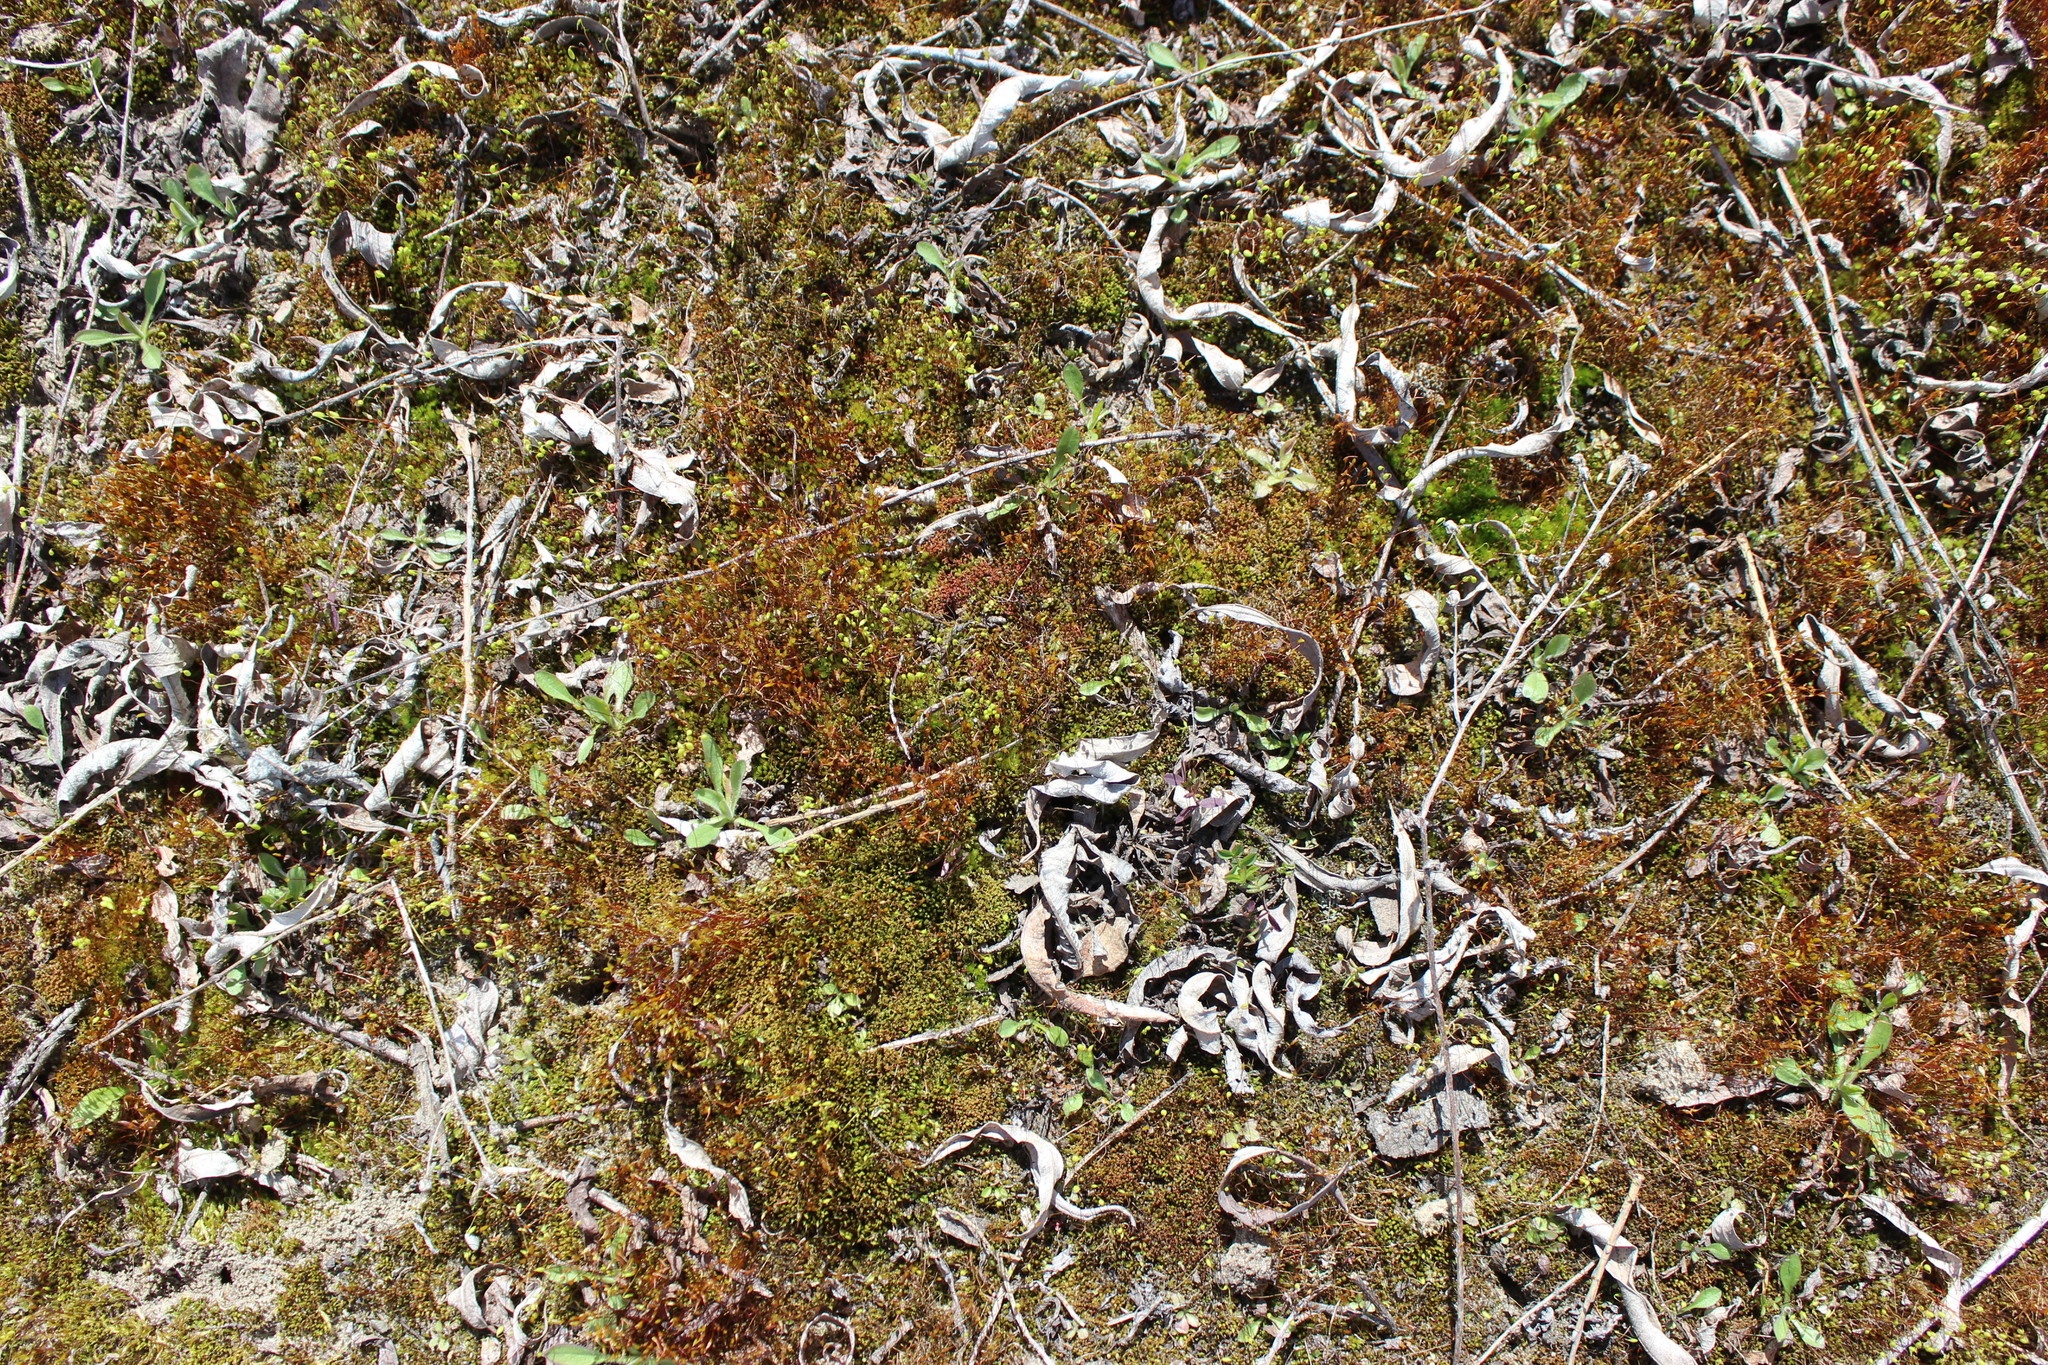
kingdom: Plantae
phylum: Tracheophyta
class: Magnoliopsida
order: Asterales
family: Asteraceae
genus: Antennaria
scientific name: Antennaria dioica
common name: Mountain everlasting
